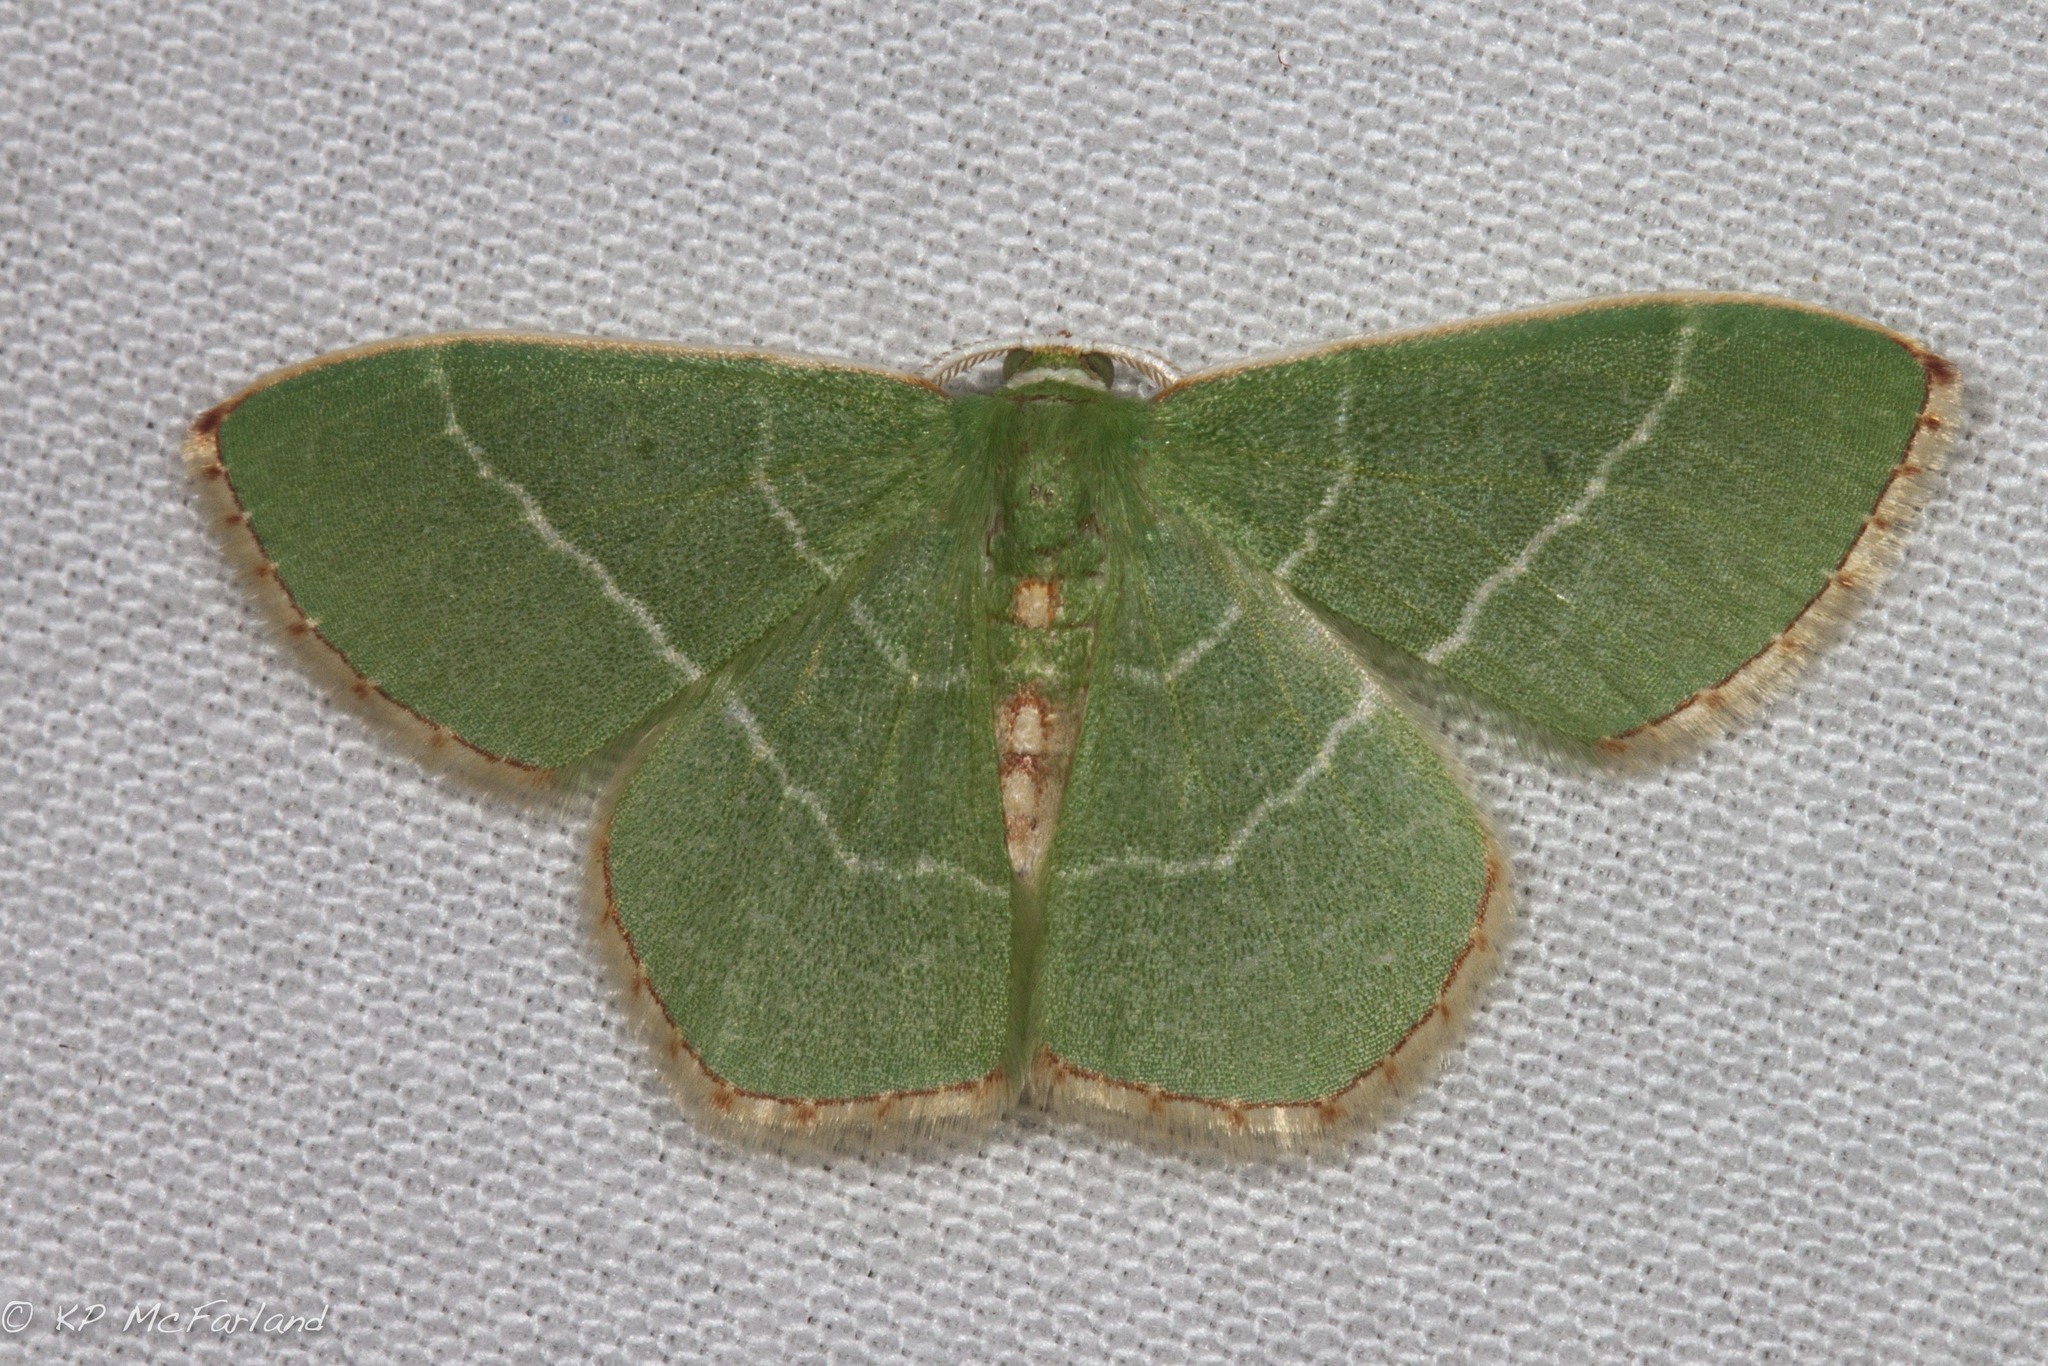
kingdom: Animalia
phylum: Arthropoda
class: Insecta
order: Lepidoptera
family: Geometridae
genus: Nemoria
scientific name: Nemoria bistriaria
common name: Red-fringed emerald
